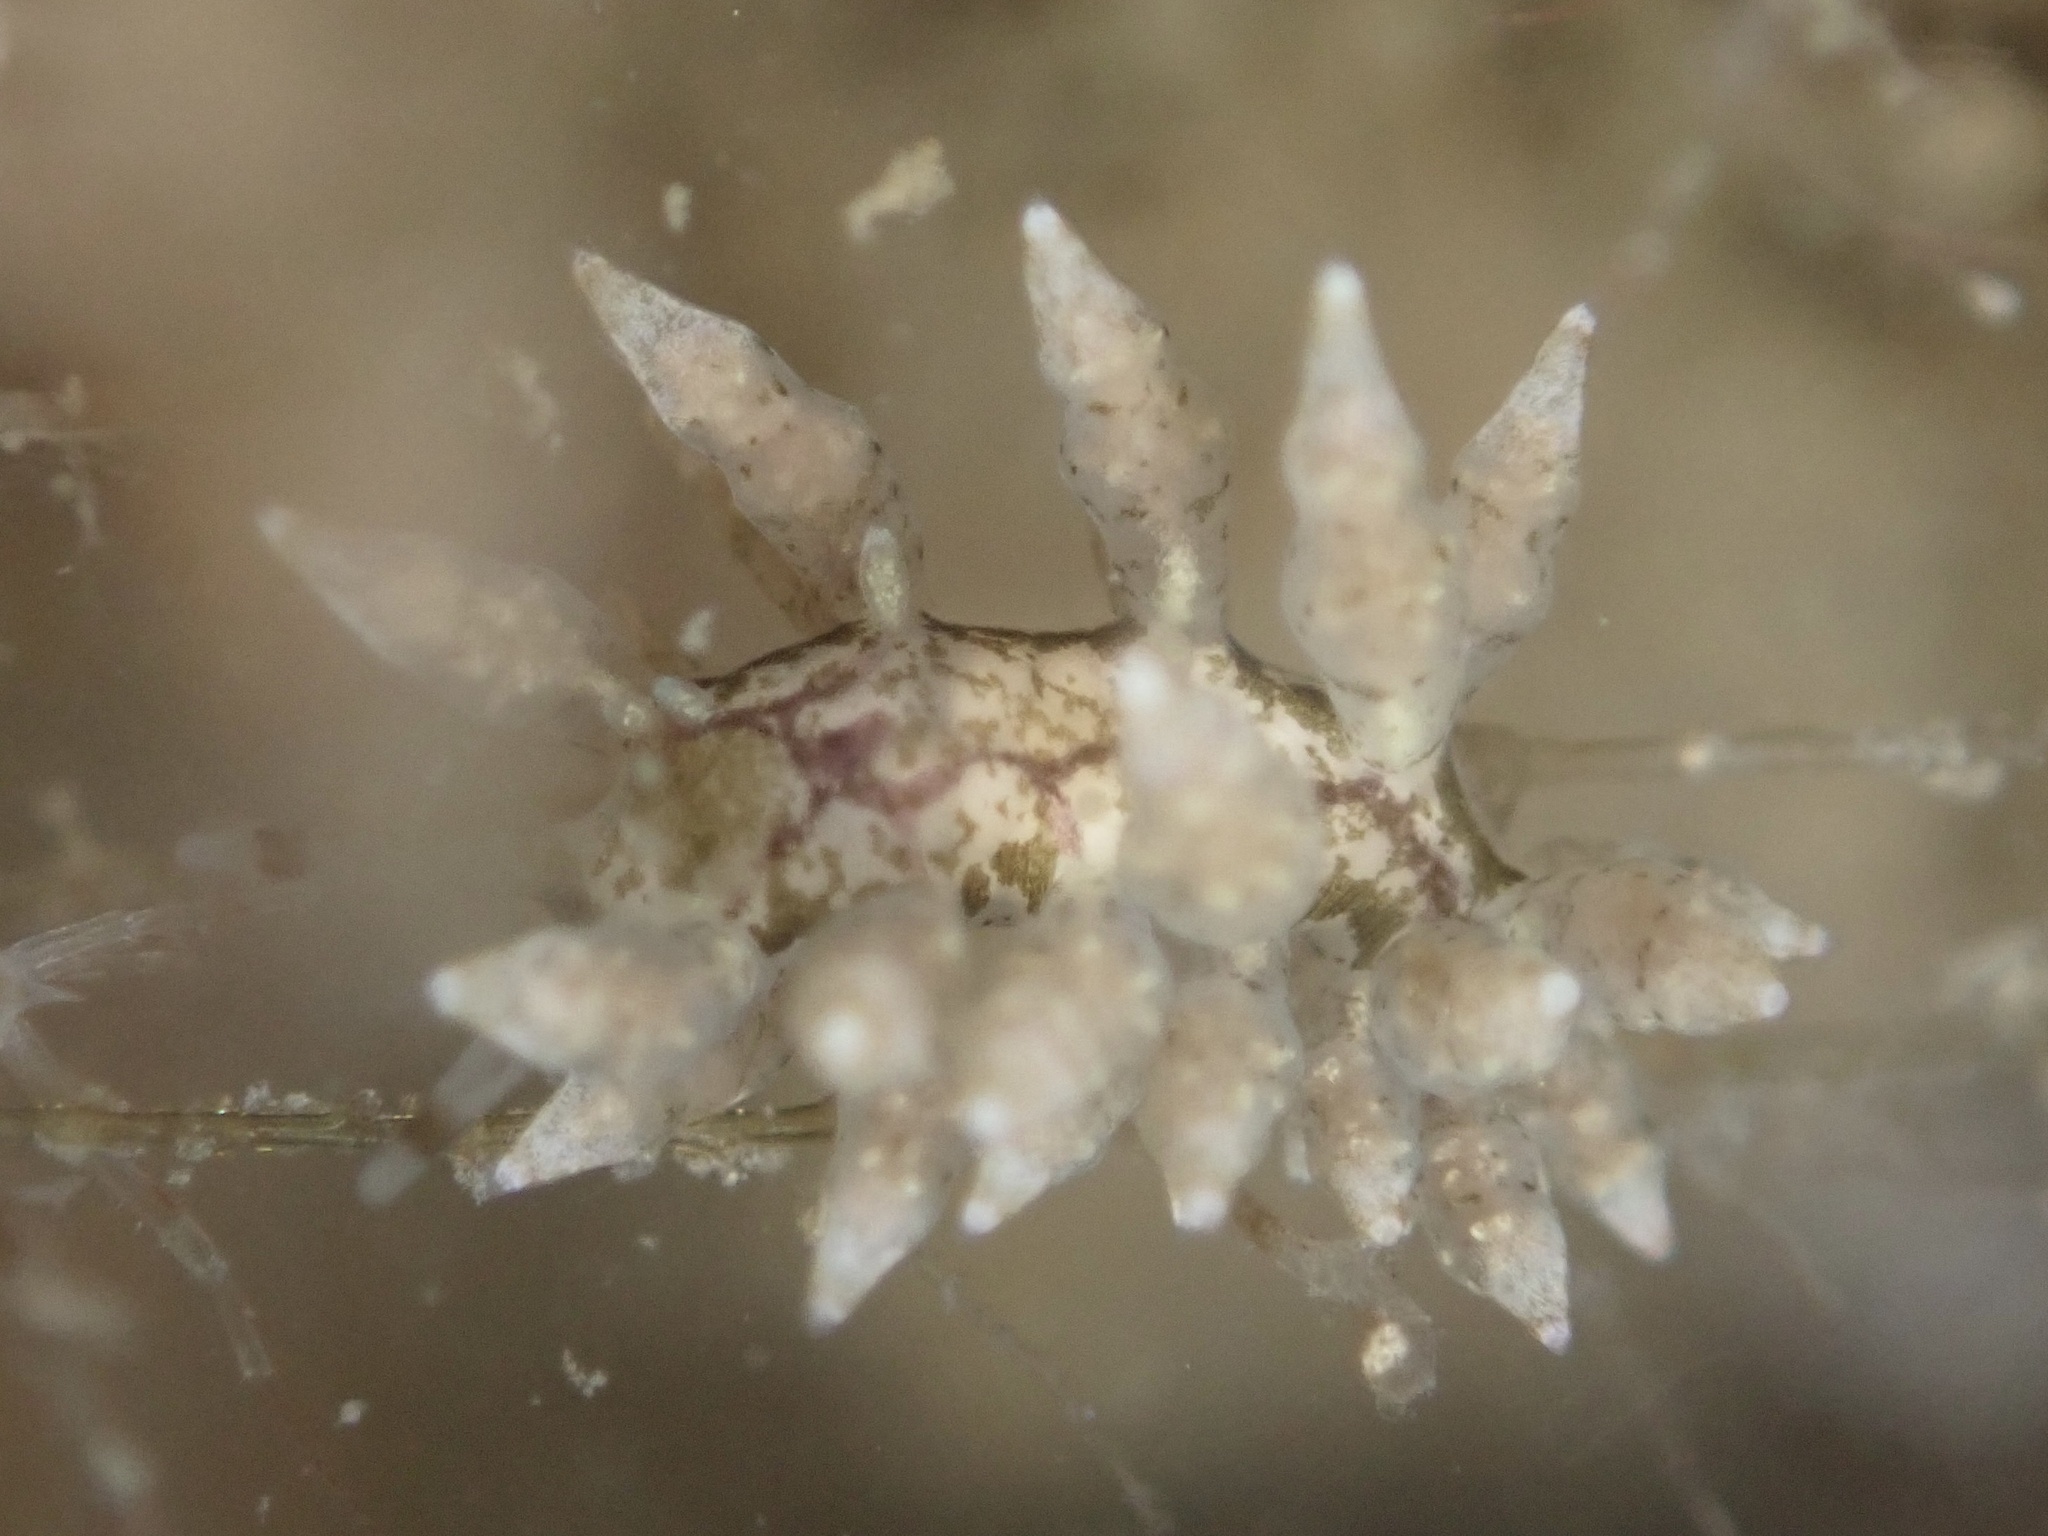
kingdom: Animalia
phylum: Mollusca
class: Gastropoda
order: Nudibranchia
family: Eubranchidae
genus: Eubranchus
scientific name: Eubranchus rustyus
